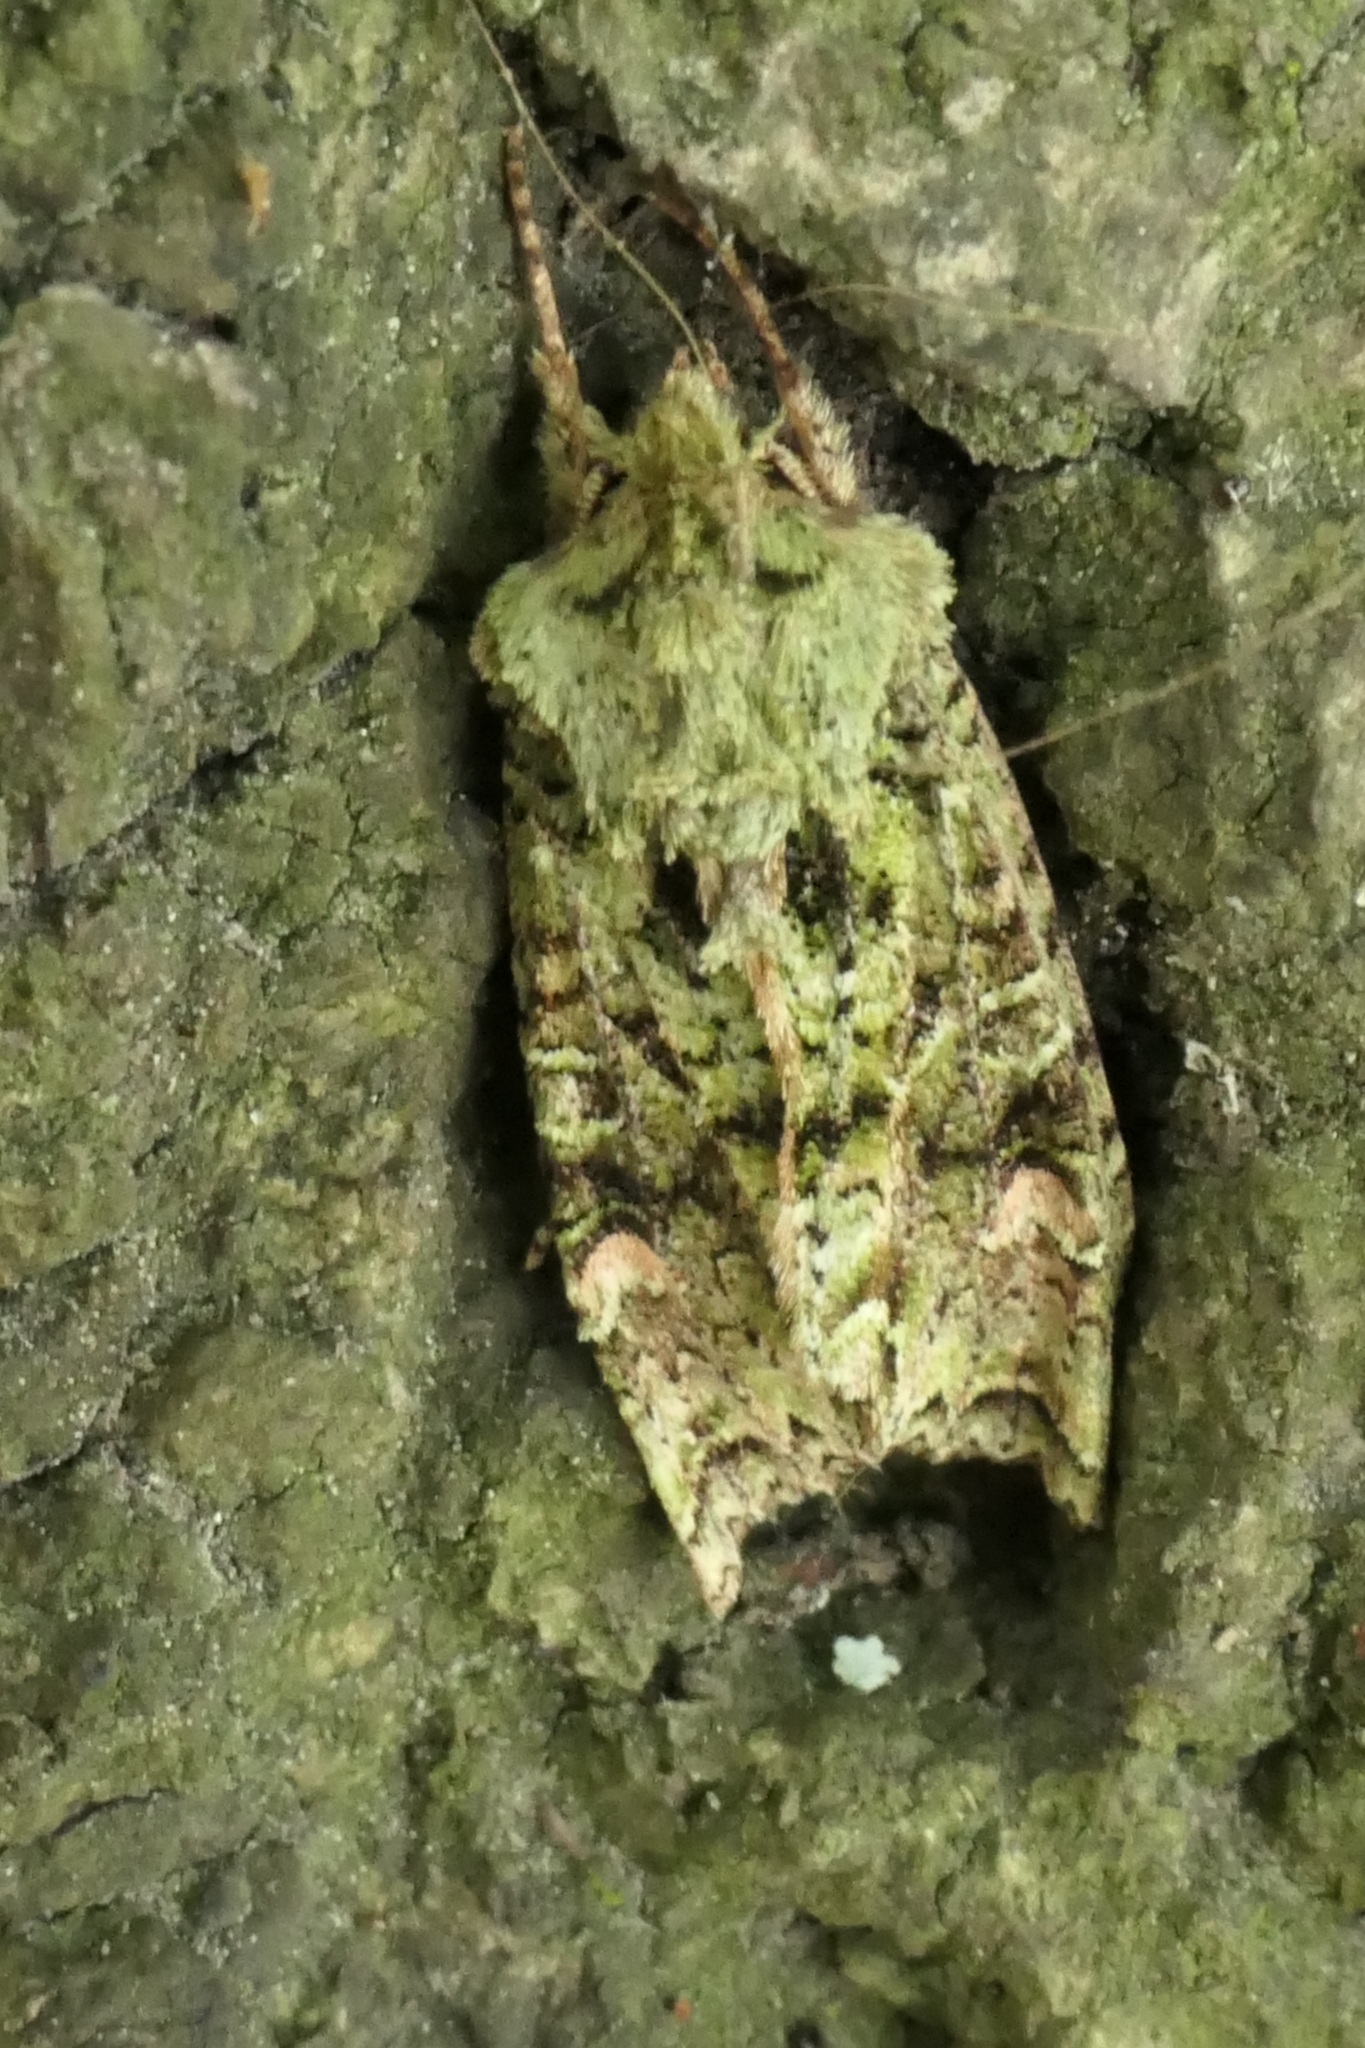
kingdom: Animalia
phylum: Arthropoda
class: Insecta
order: Lepidoptera
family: Noctuidae
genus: Ichneutica
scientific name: Ichneutica
